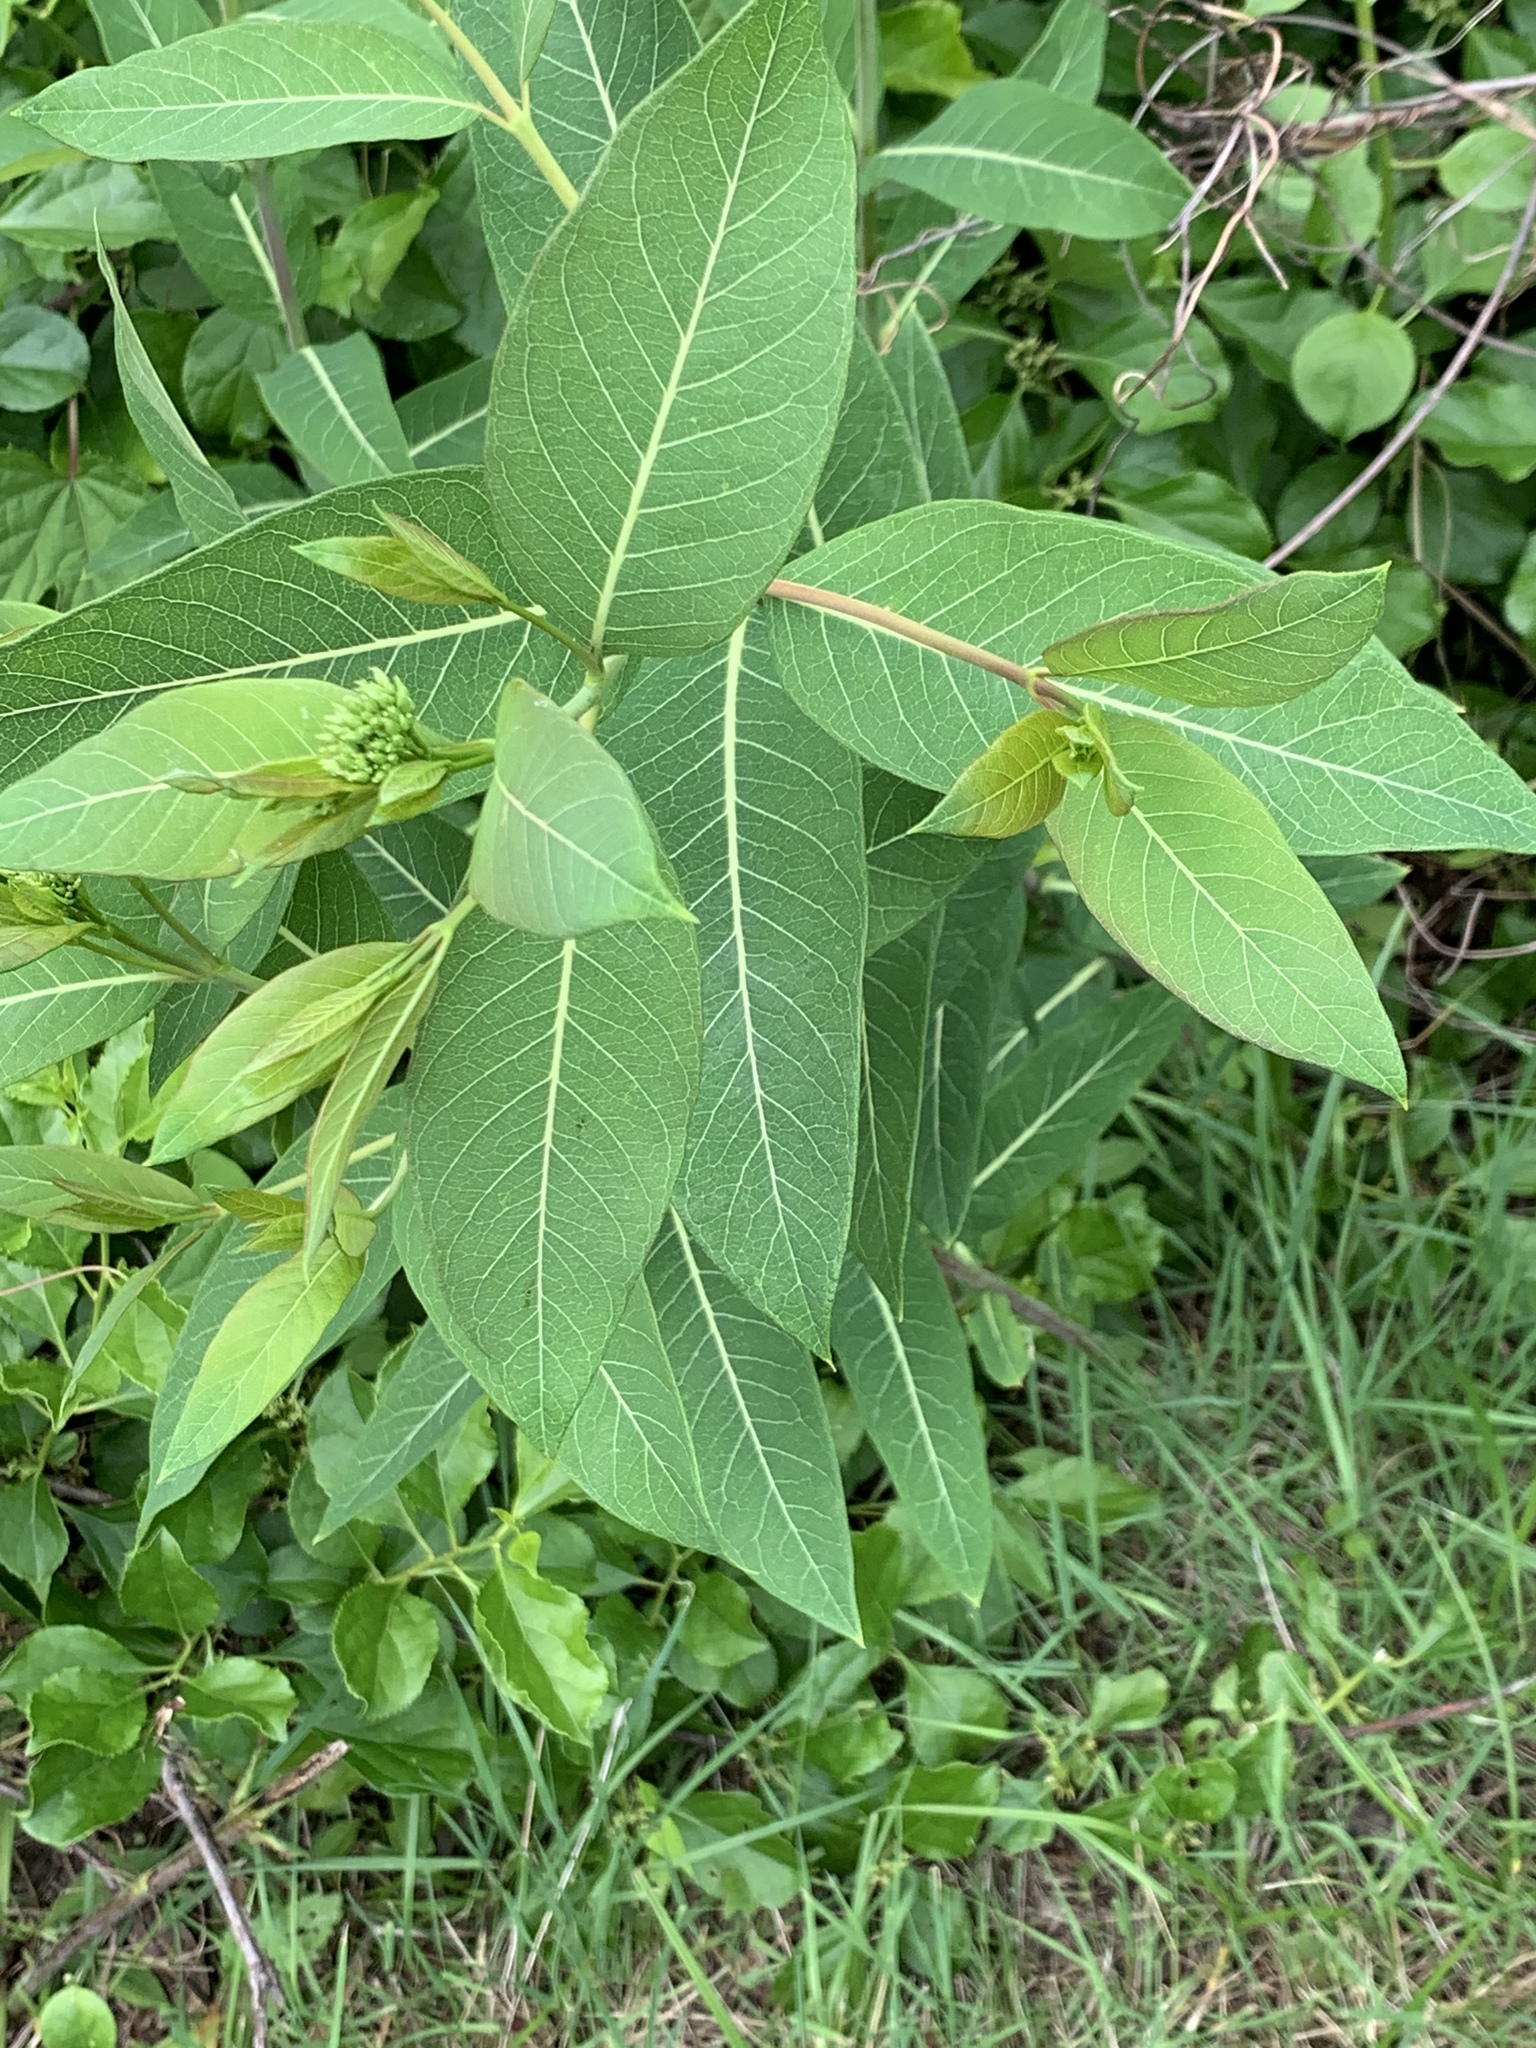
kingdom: Plantae
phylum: Tracheophyta
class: Magnoliopsida
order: Gentianales
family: Apocynaceae
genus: Apocynum
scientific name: Apocynum cannabinum
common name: Hemp dogbane
